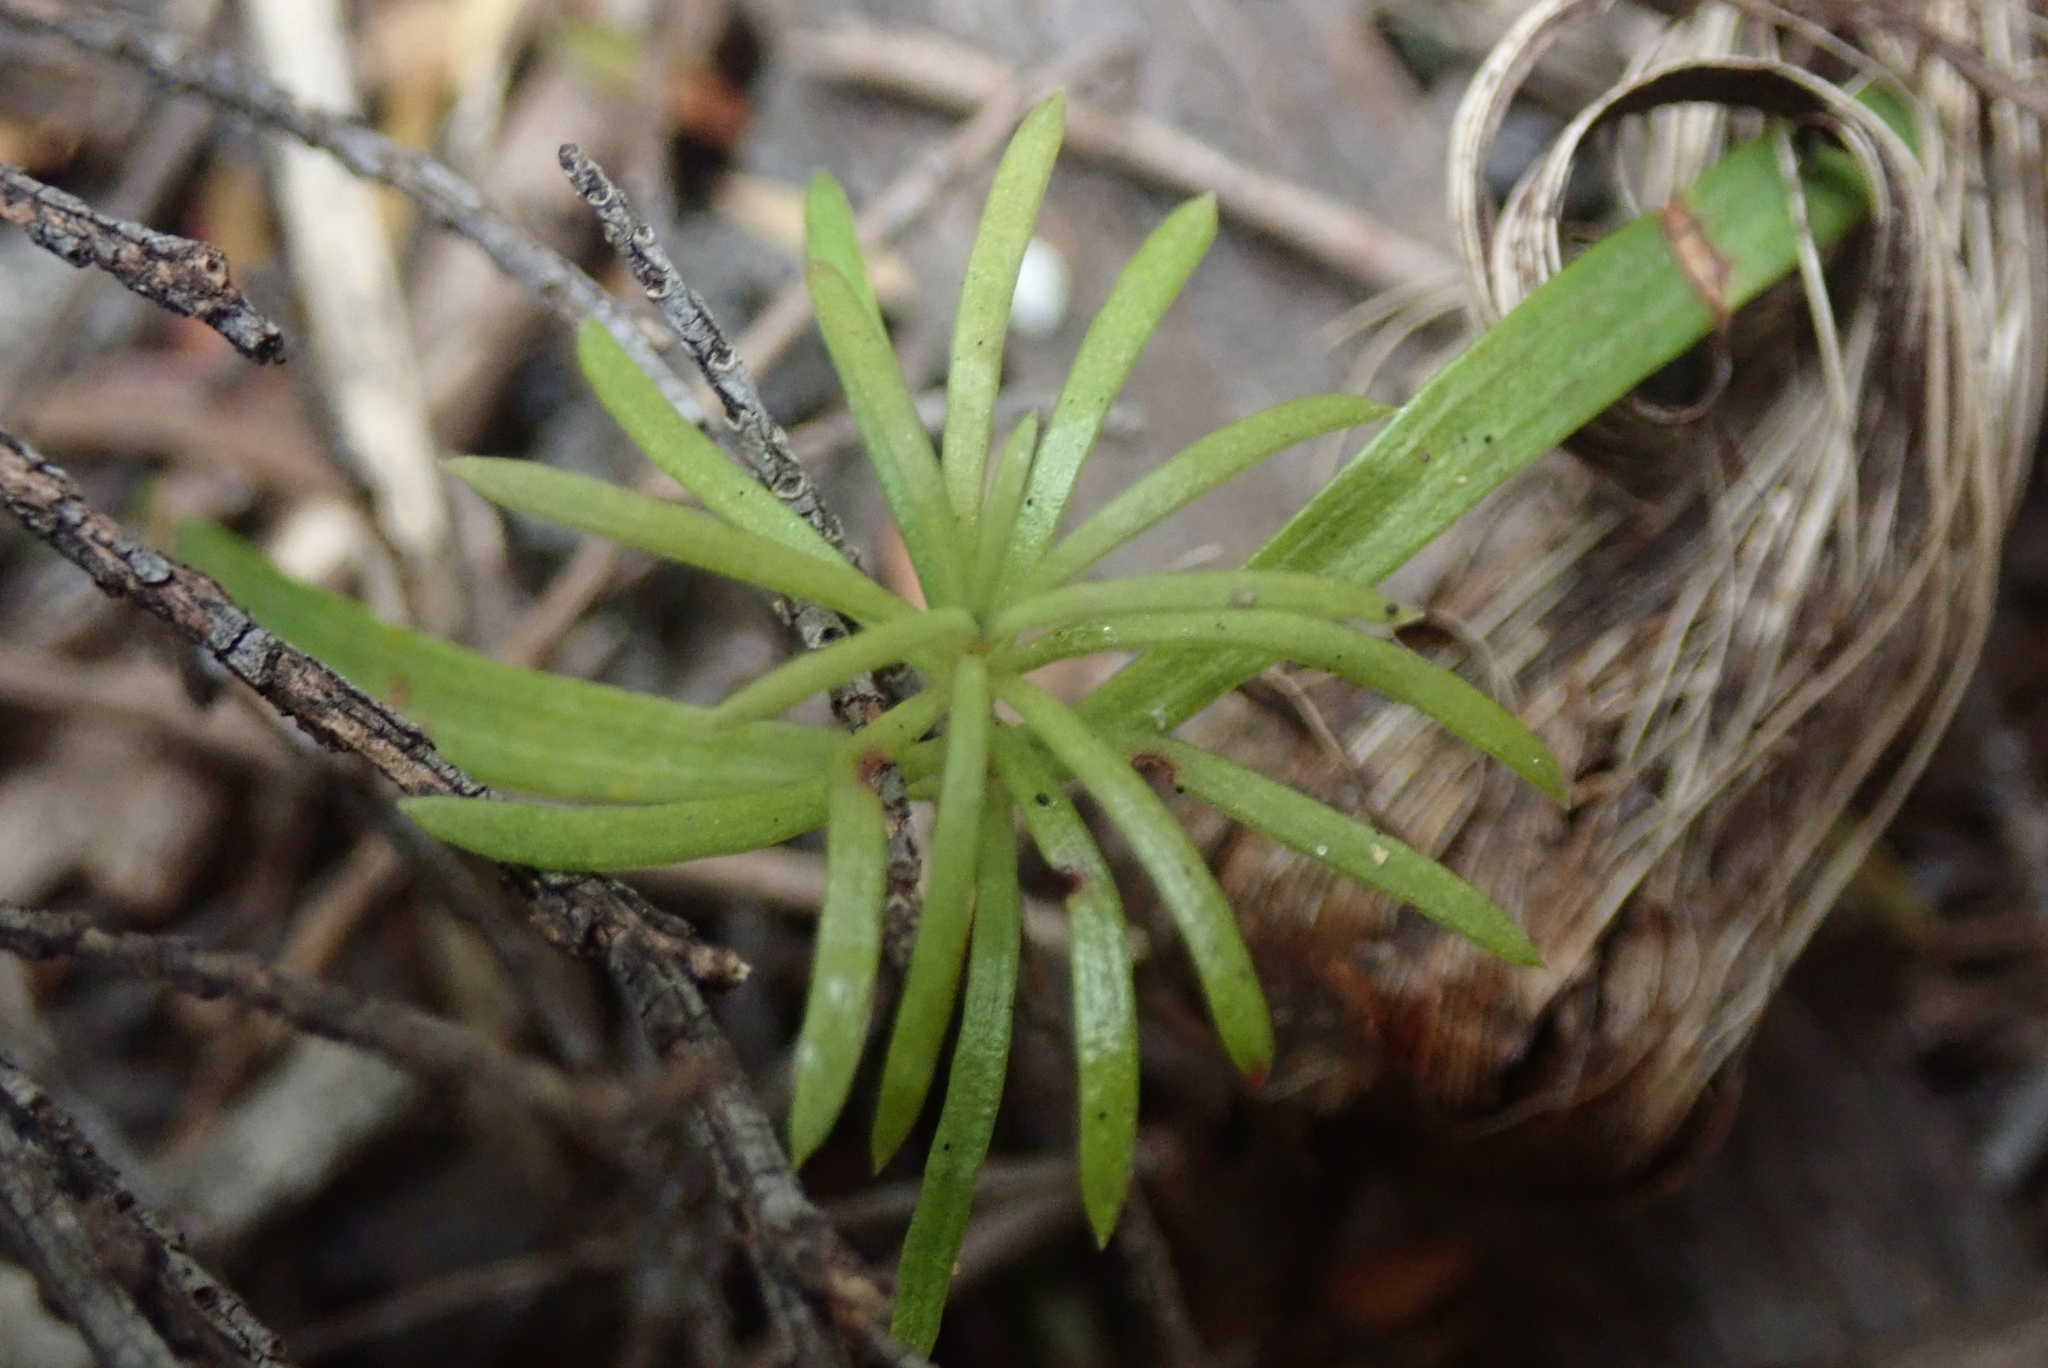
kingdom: Plantae
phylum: Tracheophyta
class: Pinopsida
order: Pinales
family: Podocarpaceae
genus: Podocarpus
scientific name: Podocarpus totara
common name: Totara
